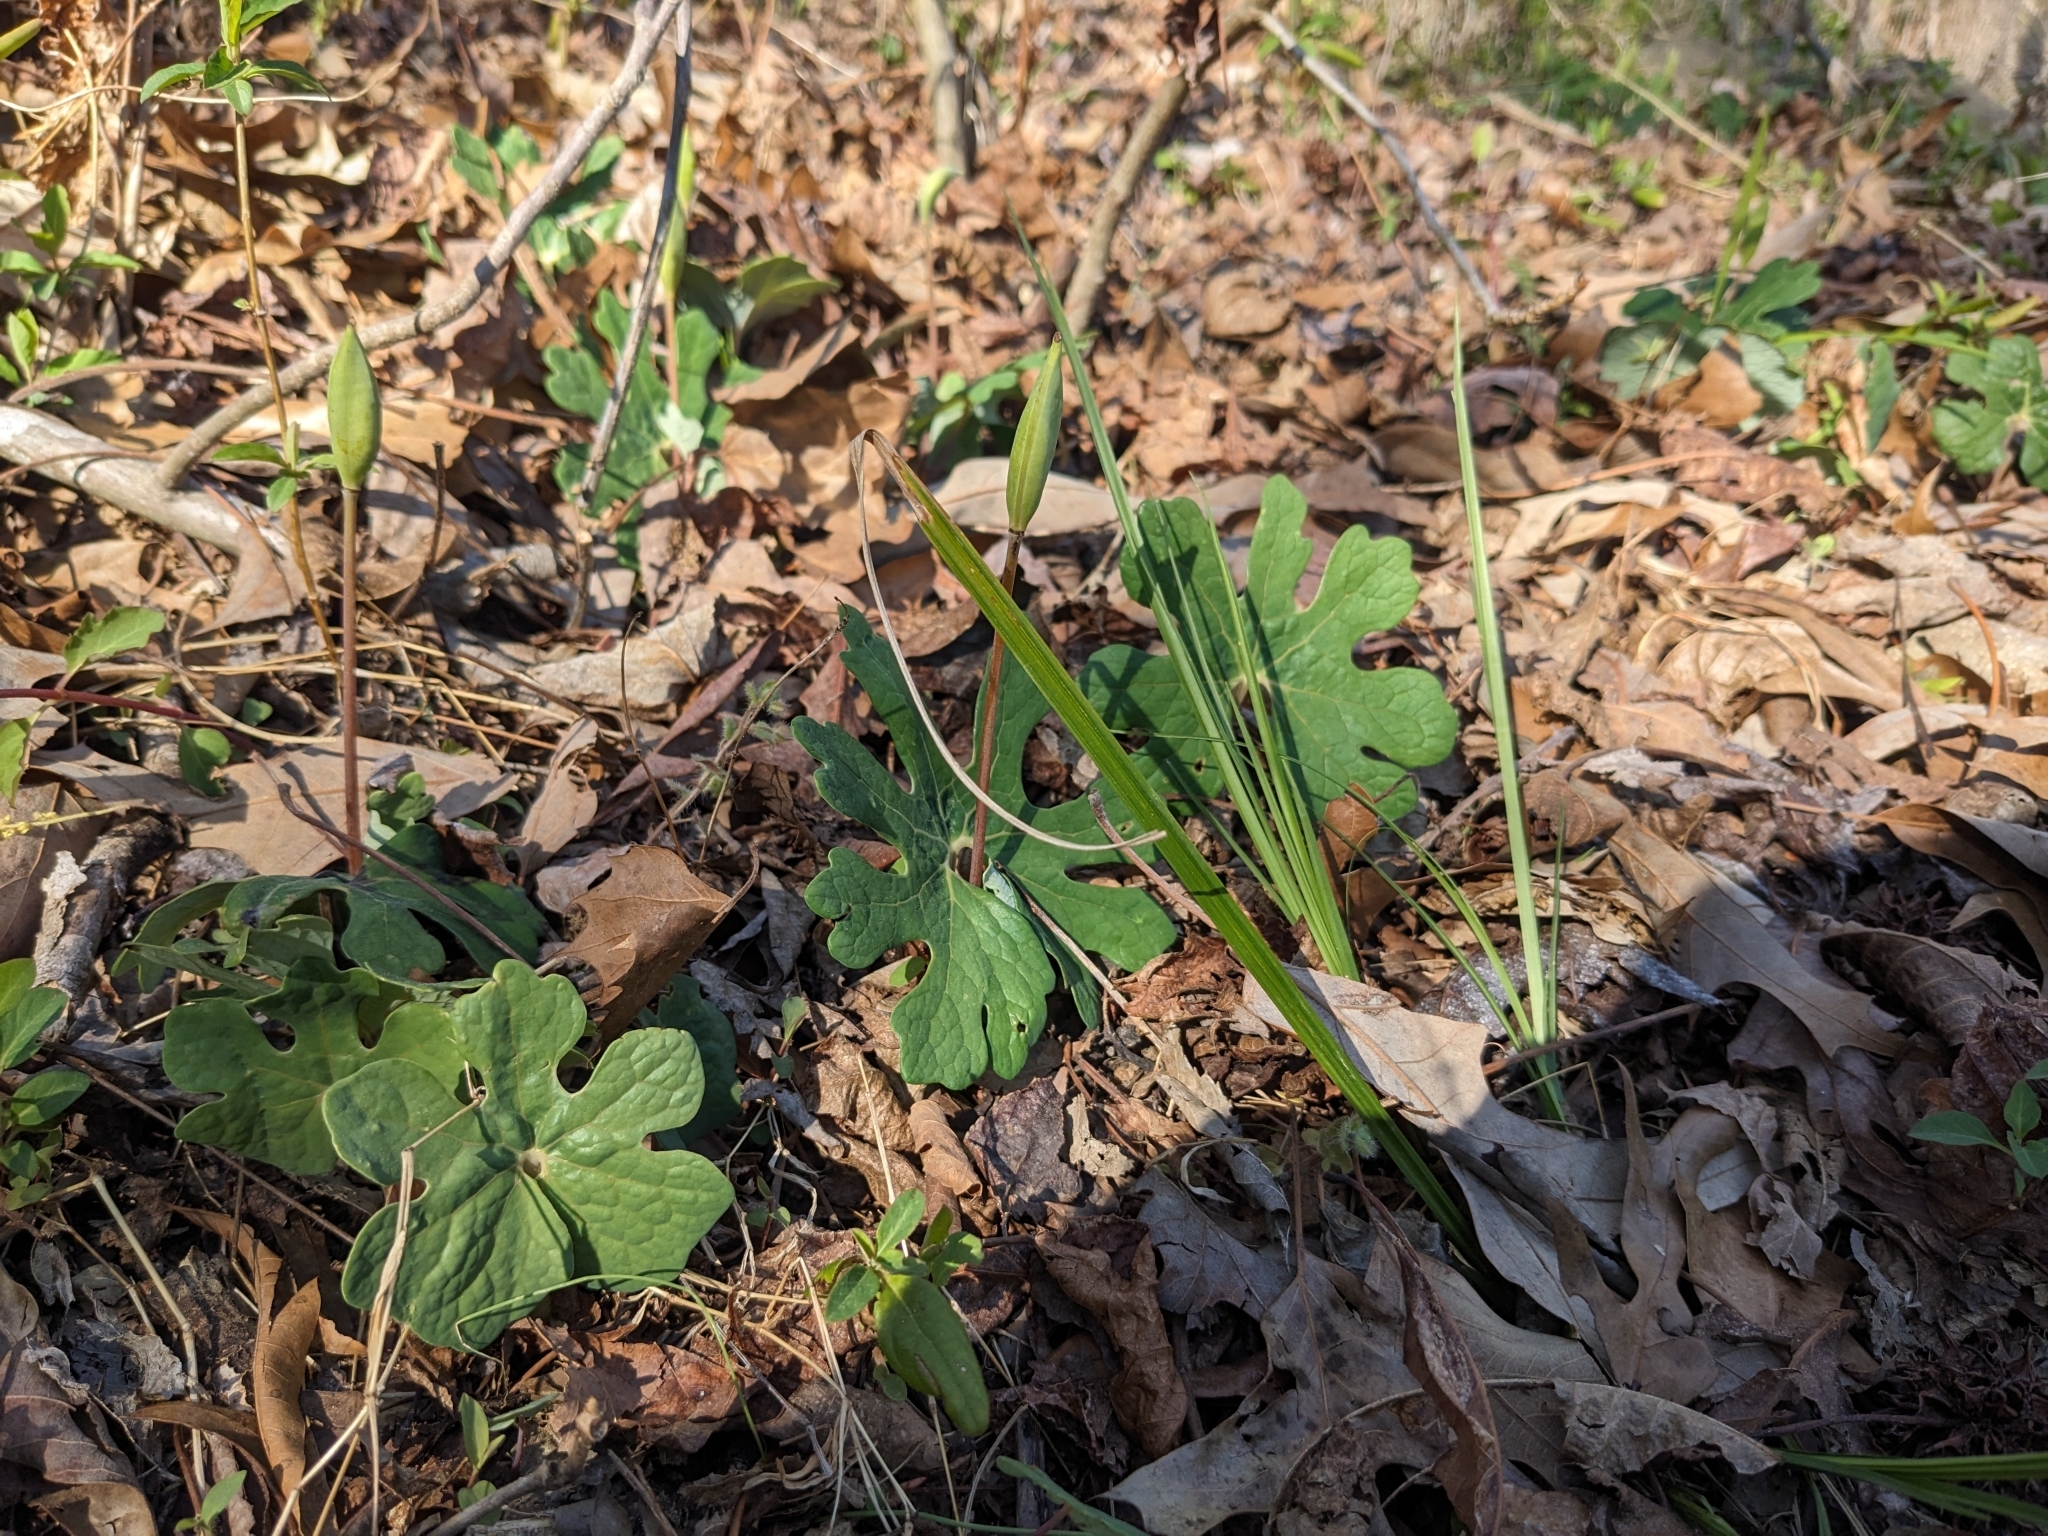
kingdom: Plantae
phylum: Tracheophyta
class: Magnoliopsida
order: Ranunculales
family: Papaveraceae
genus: Sanguinaria
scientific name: Sanguinaria canadensis
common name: Bloodroot
